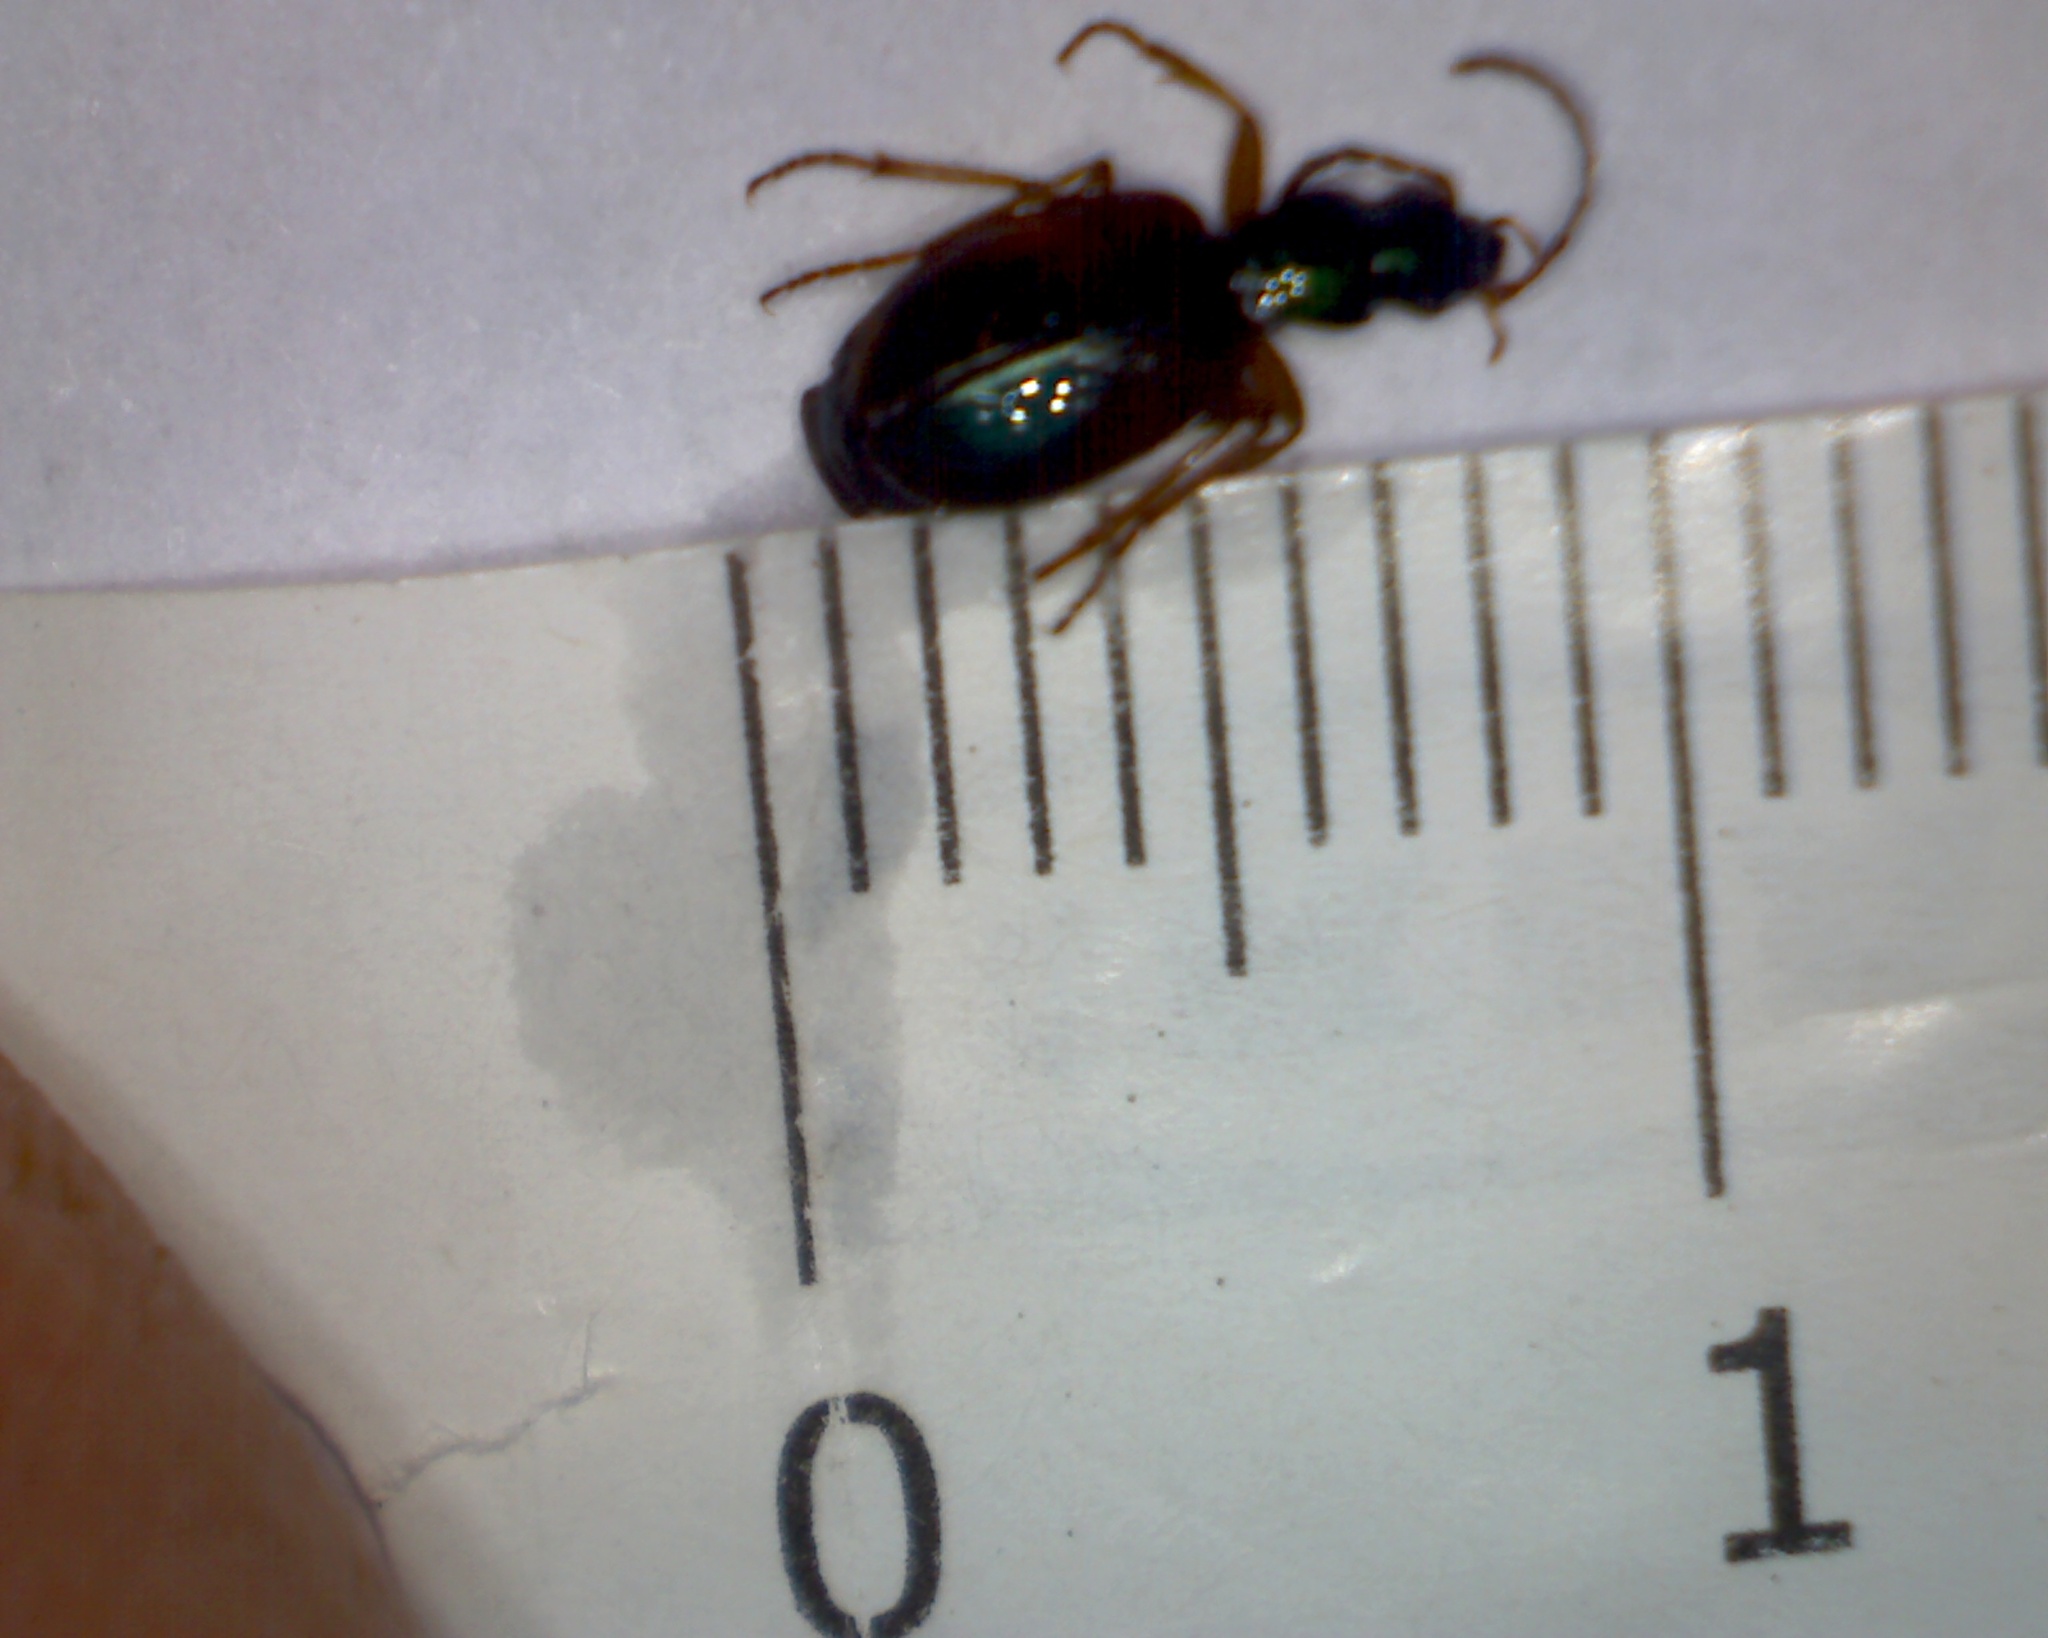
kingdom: Animalia
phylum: Arthropoda
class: Insecta
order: Coleoptera
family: Carabidae
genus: Anchomenus
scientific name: Anchomenus dorsalis
